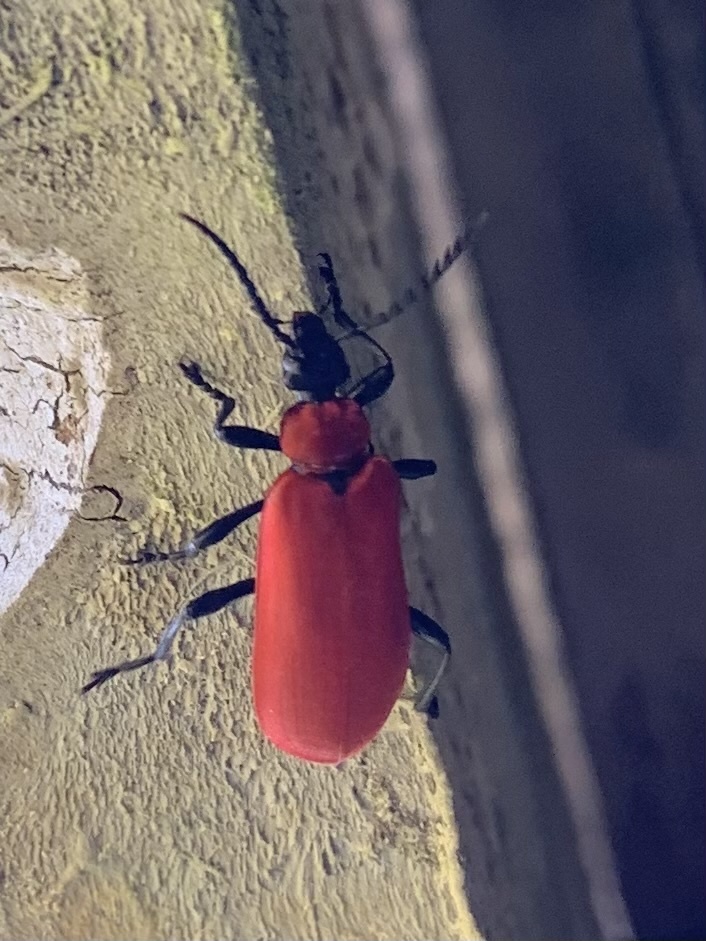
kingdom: Animalia
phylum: Arthropoda
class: Insecta
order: Coleoptera
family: Pyrochroidae
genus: Pyrochroa
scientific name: Pyrochroa coccinea
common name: Black-headed cardinal beetle
